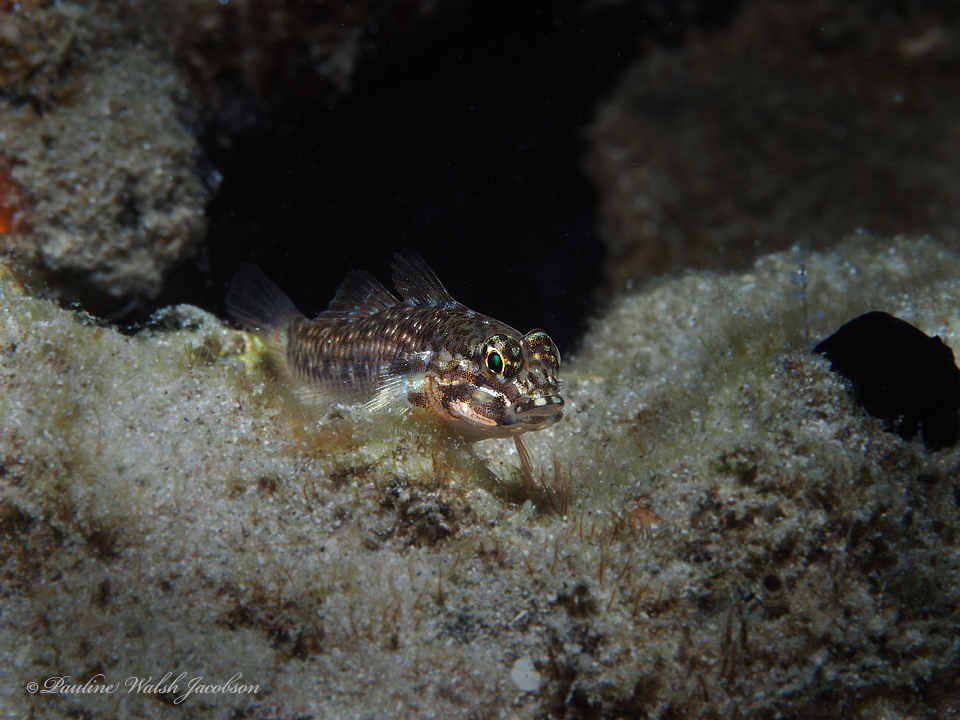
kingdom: Animalia
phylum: Chordata
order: Perciformes
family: Gobiidae
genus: Coryphopterus
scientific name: Coryphopterus dicrus
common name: Colon goby
